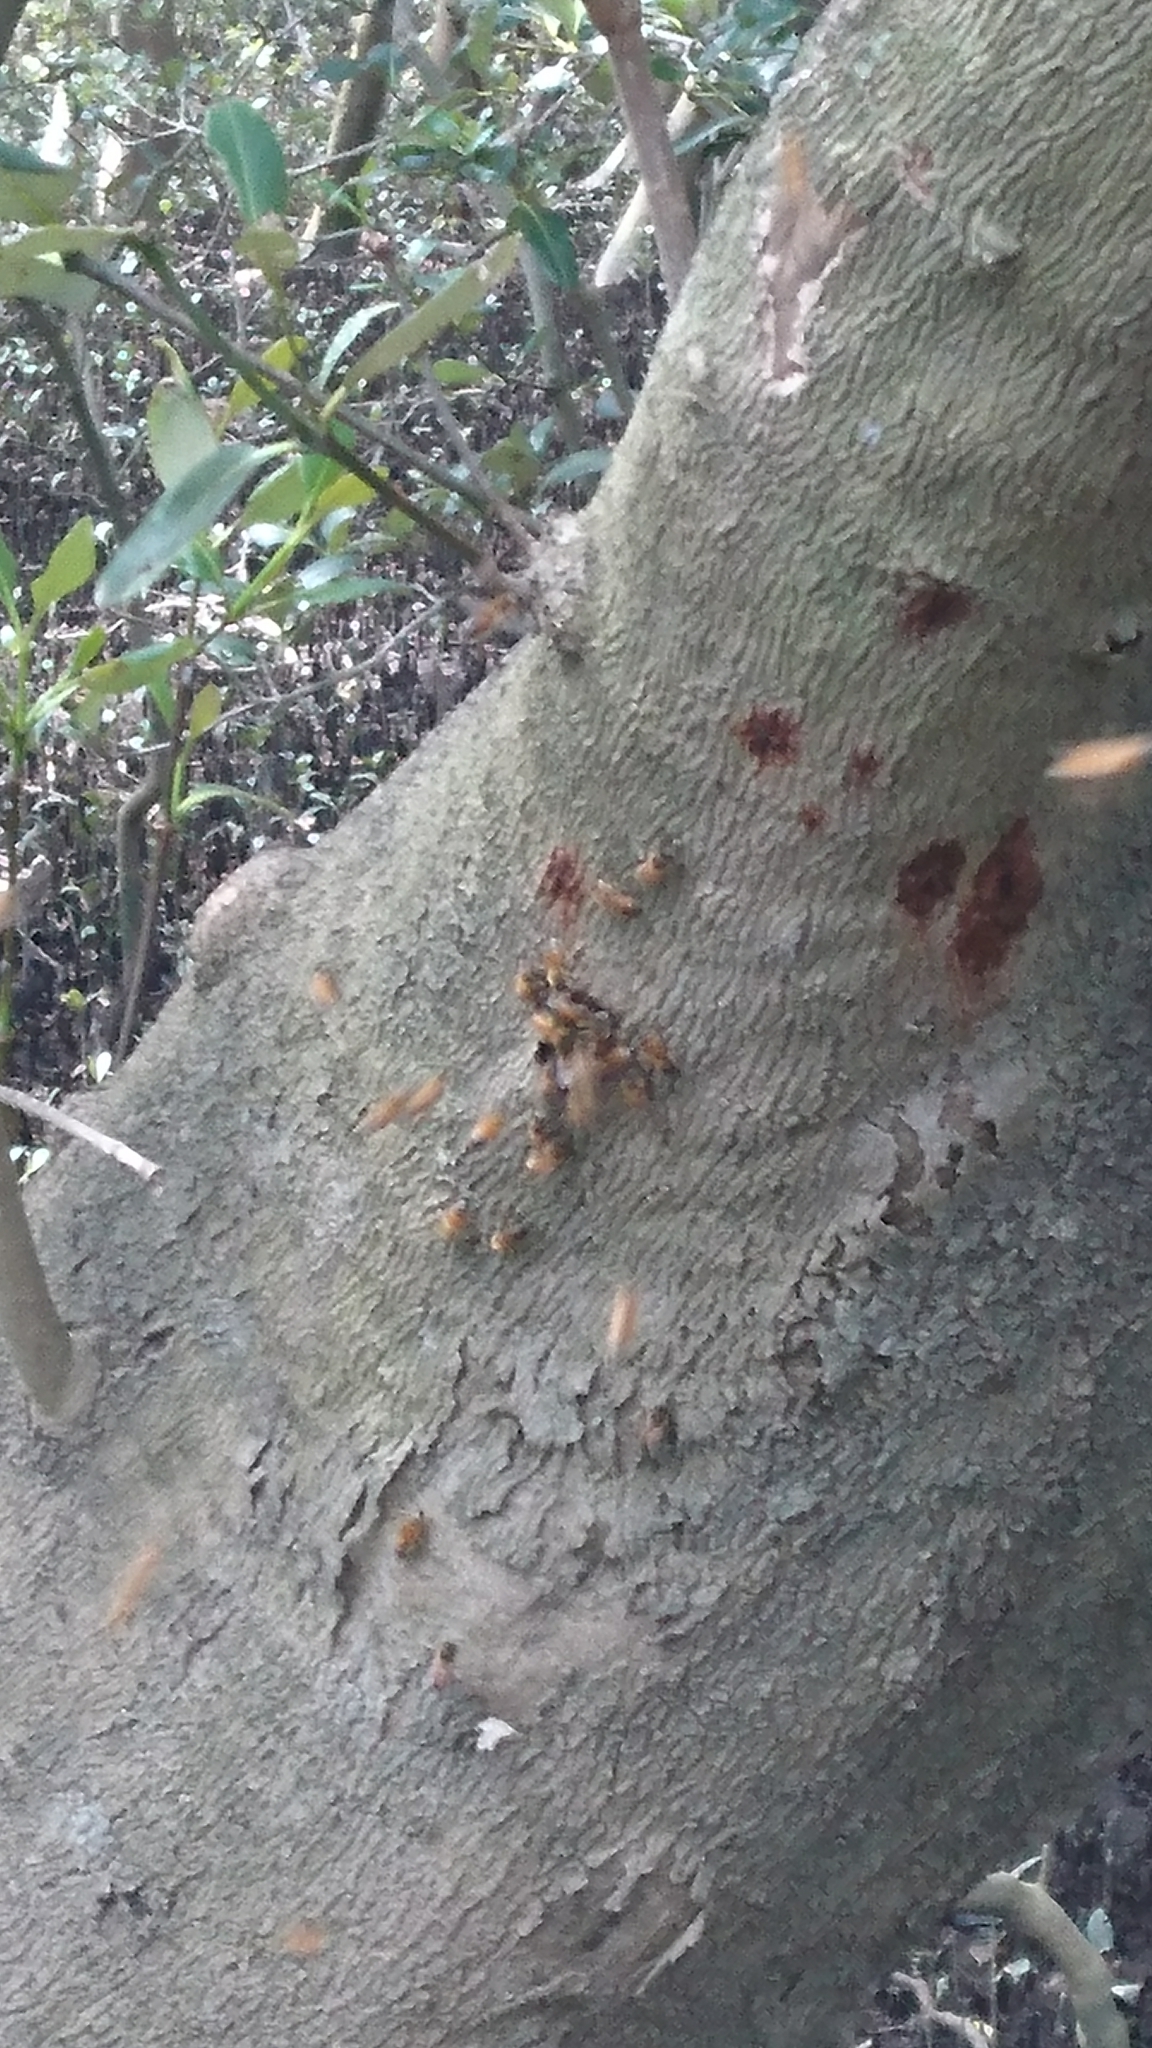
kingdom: Animalia
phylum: Arthropoda
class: Insecta
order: Hymenoptera
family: Apidae
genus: Apis
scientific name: Apis mellifera
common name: Honey bee
